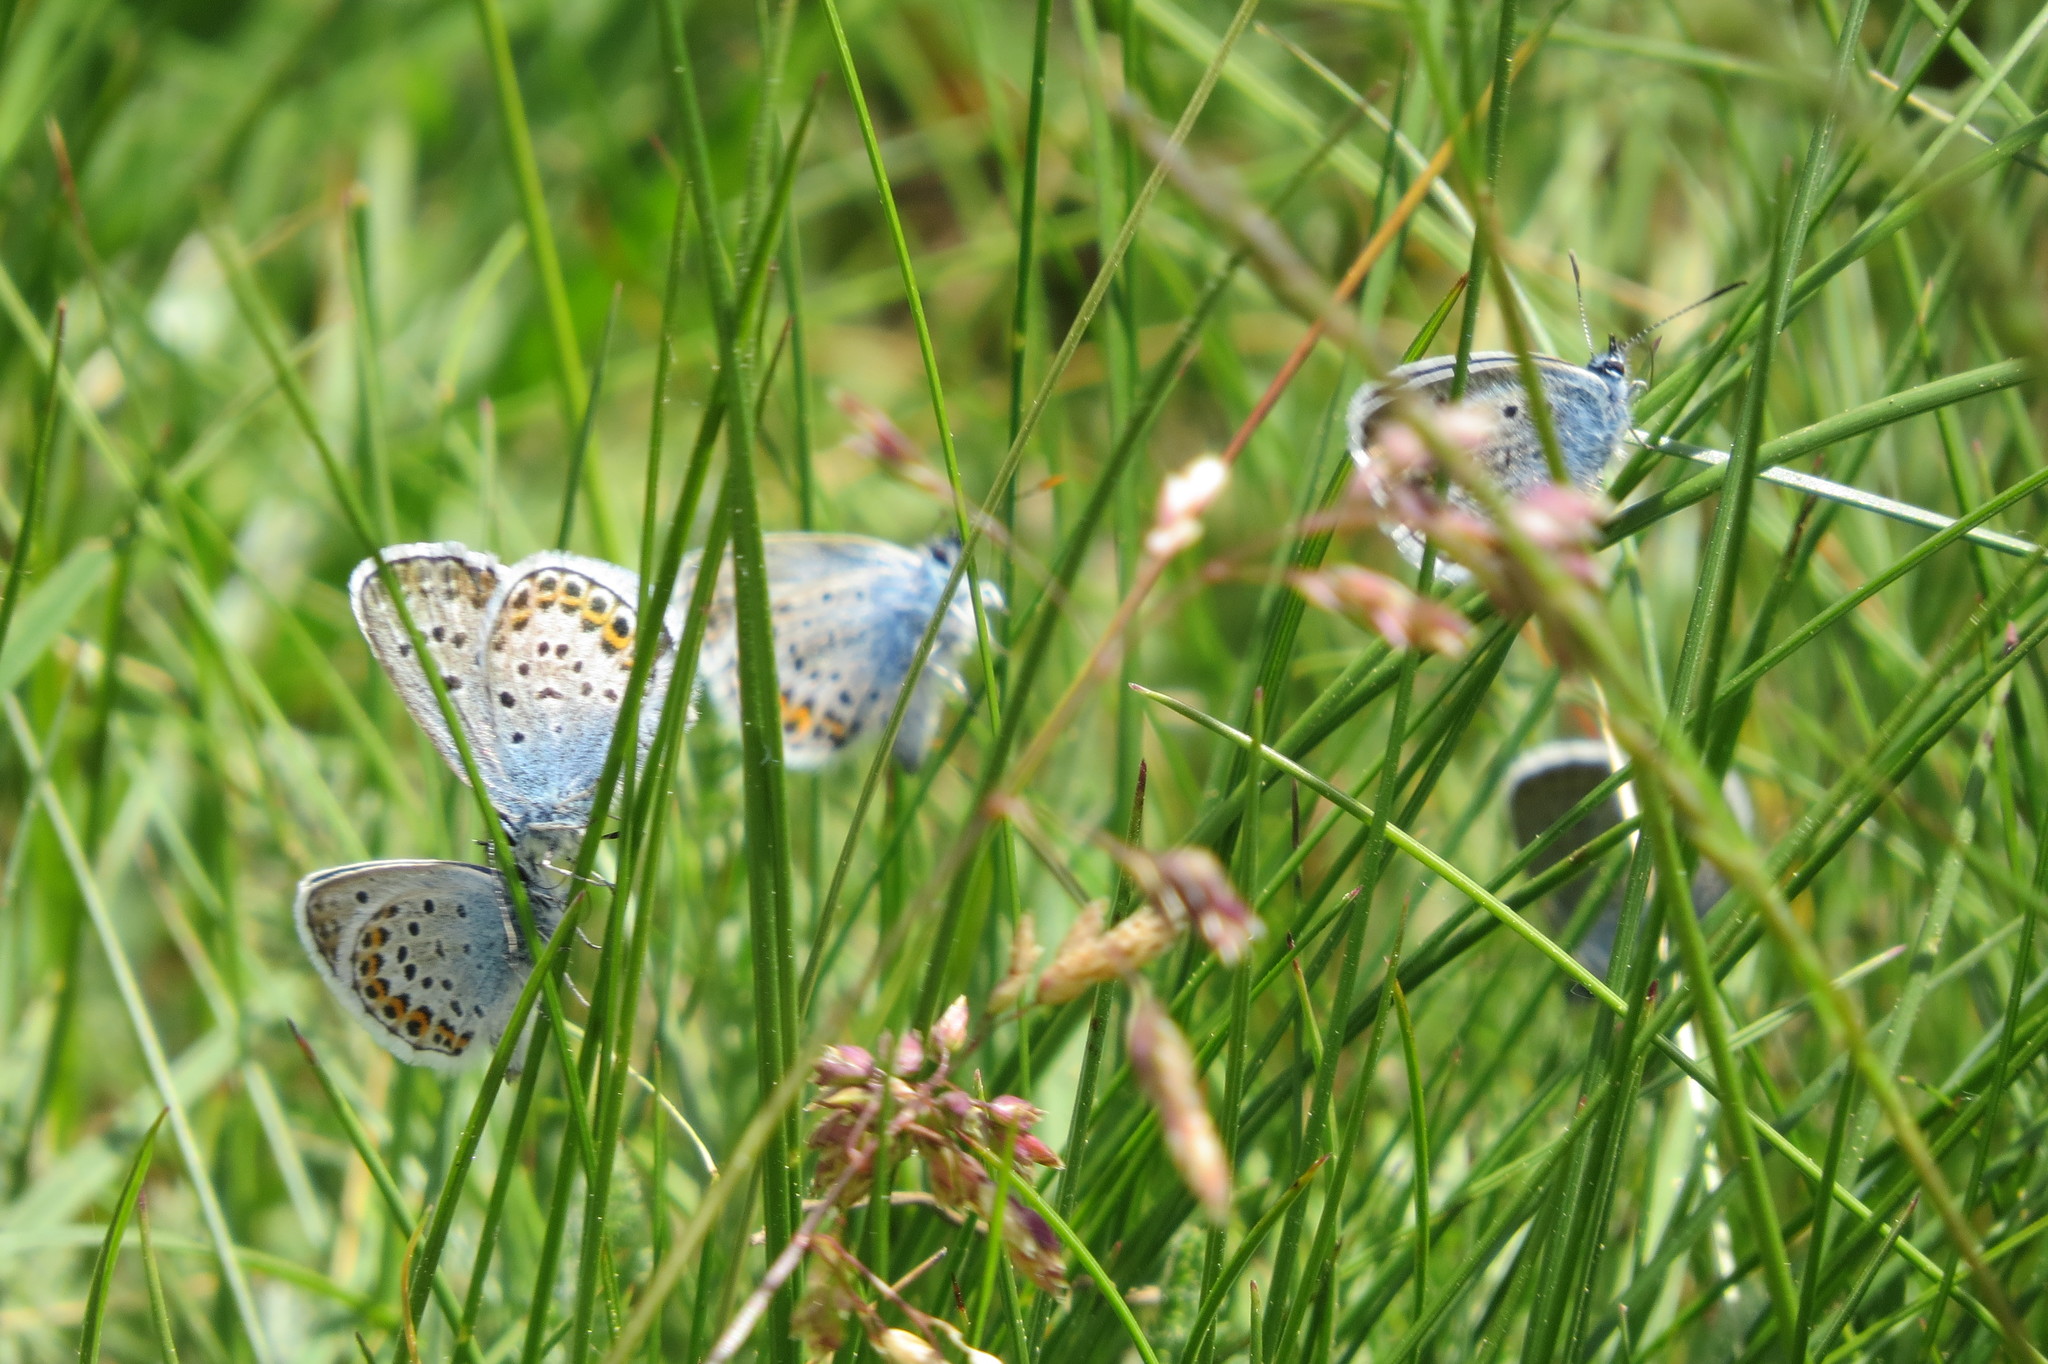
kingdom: Animalia
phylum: Arthropoda
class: Insecta
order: Lepidoptera
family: Lycaenidae
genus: Plebejus
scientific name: Plebejus argus
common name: Silver-studded blue
